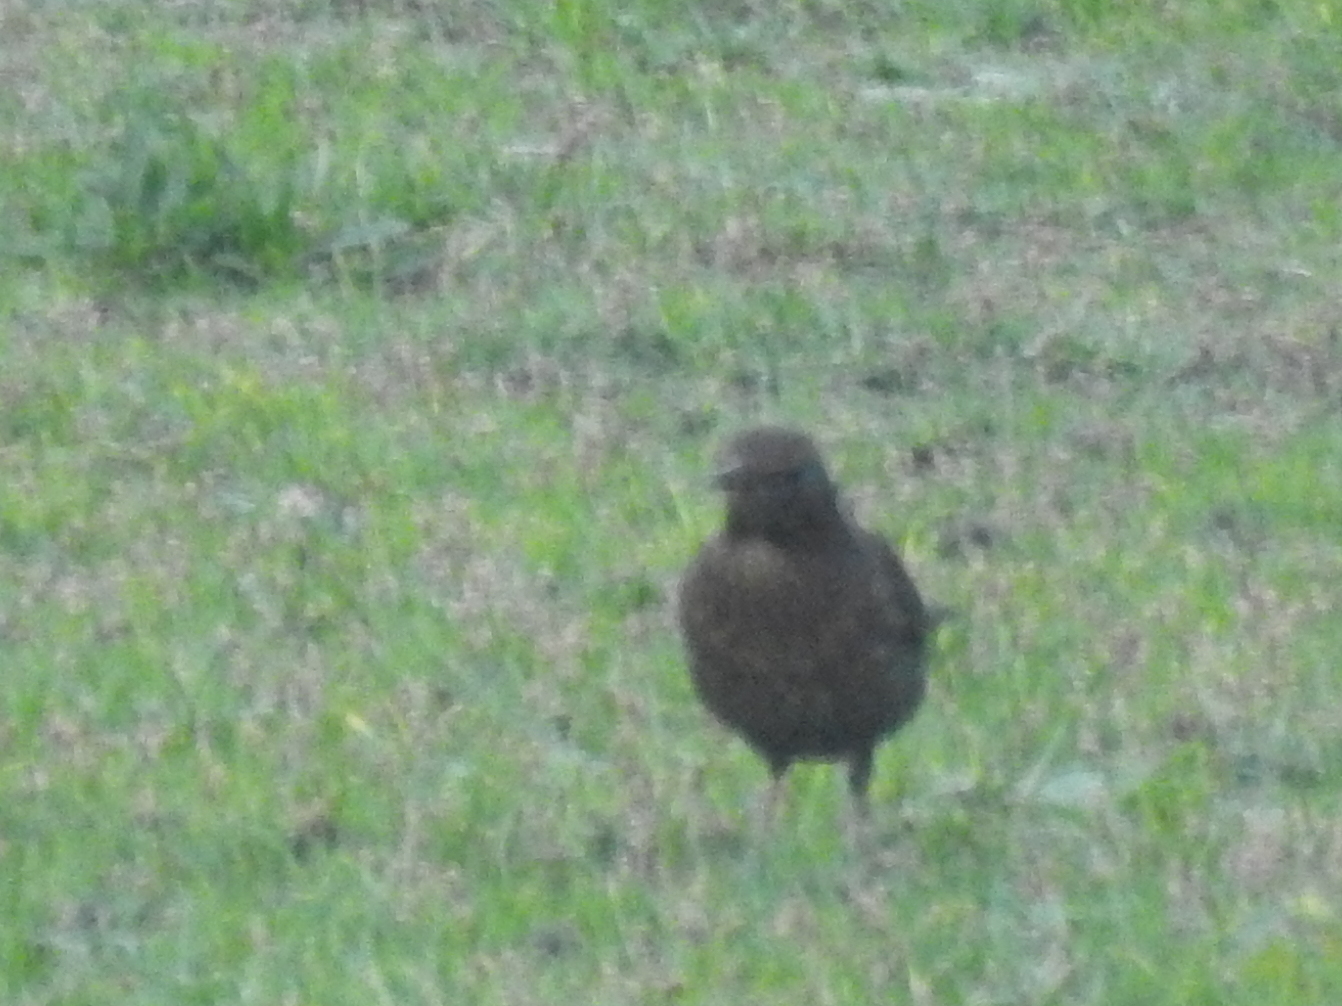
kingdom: Animalia
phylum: Chordata
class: Aves
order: Passeriformes
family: Turdidae
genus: Turdus
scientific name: Turdus merula
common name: Common blackbird
